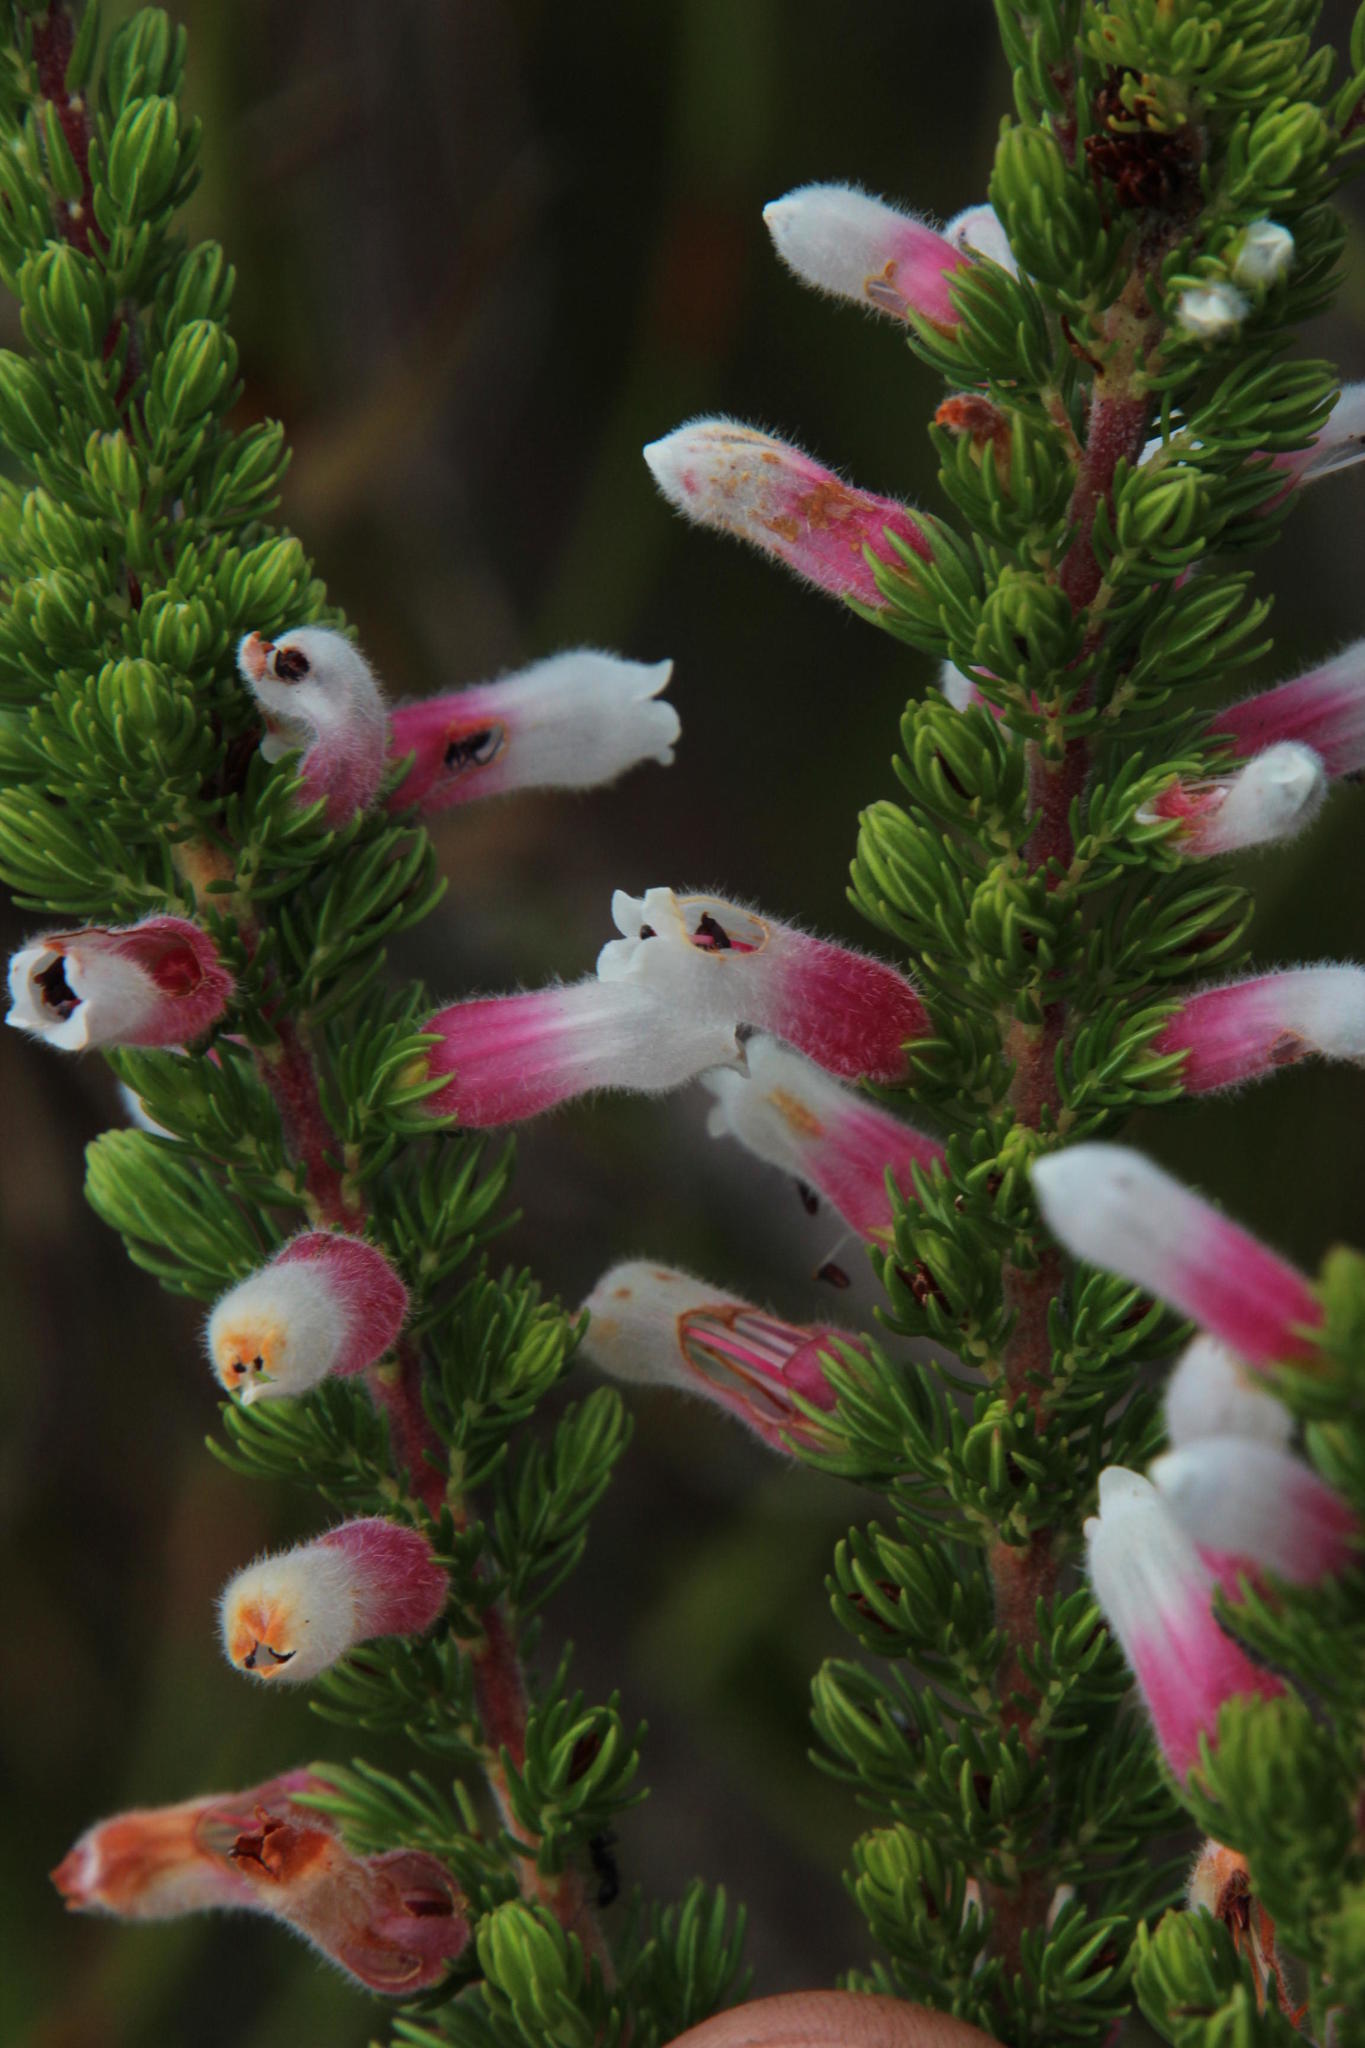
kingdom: Plantae
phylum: Tracheophyta
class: Magnoliopsida
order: Ericales
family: Ericaceae
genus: Erica
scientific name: Erica leucotrachela
